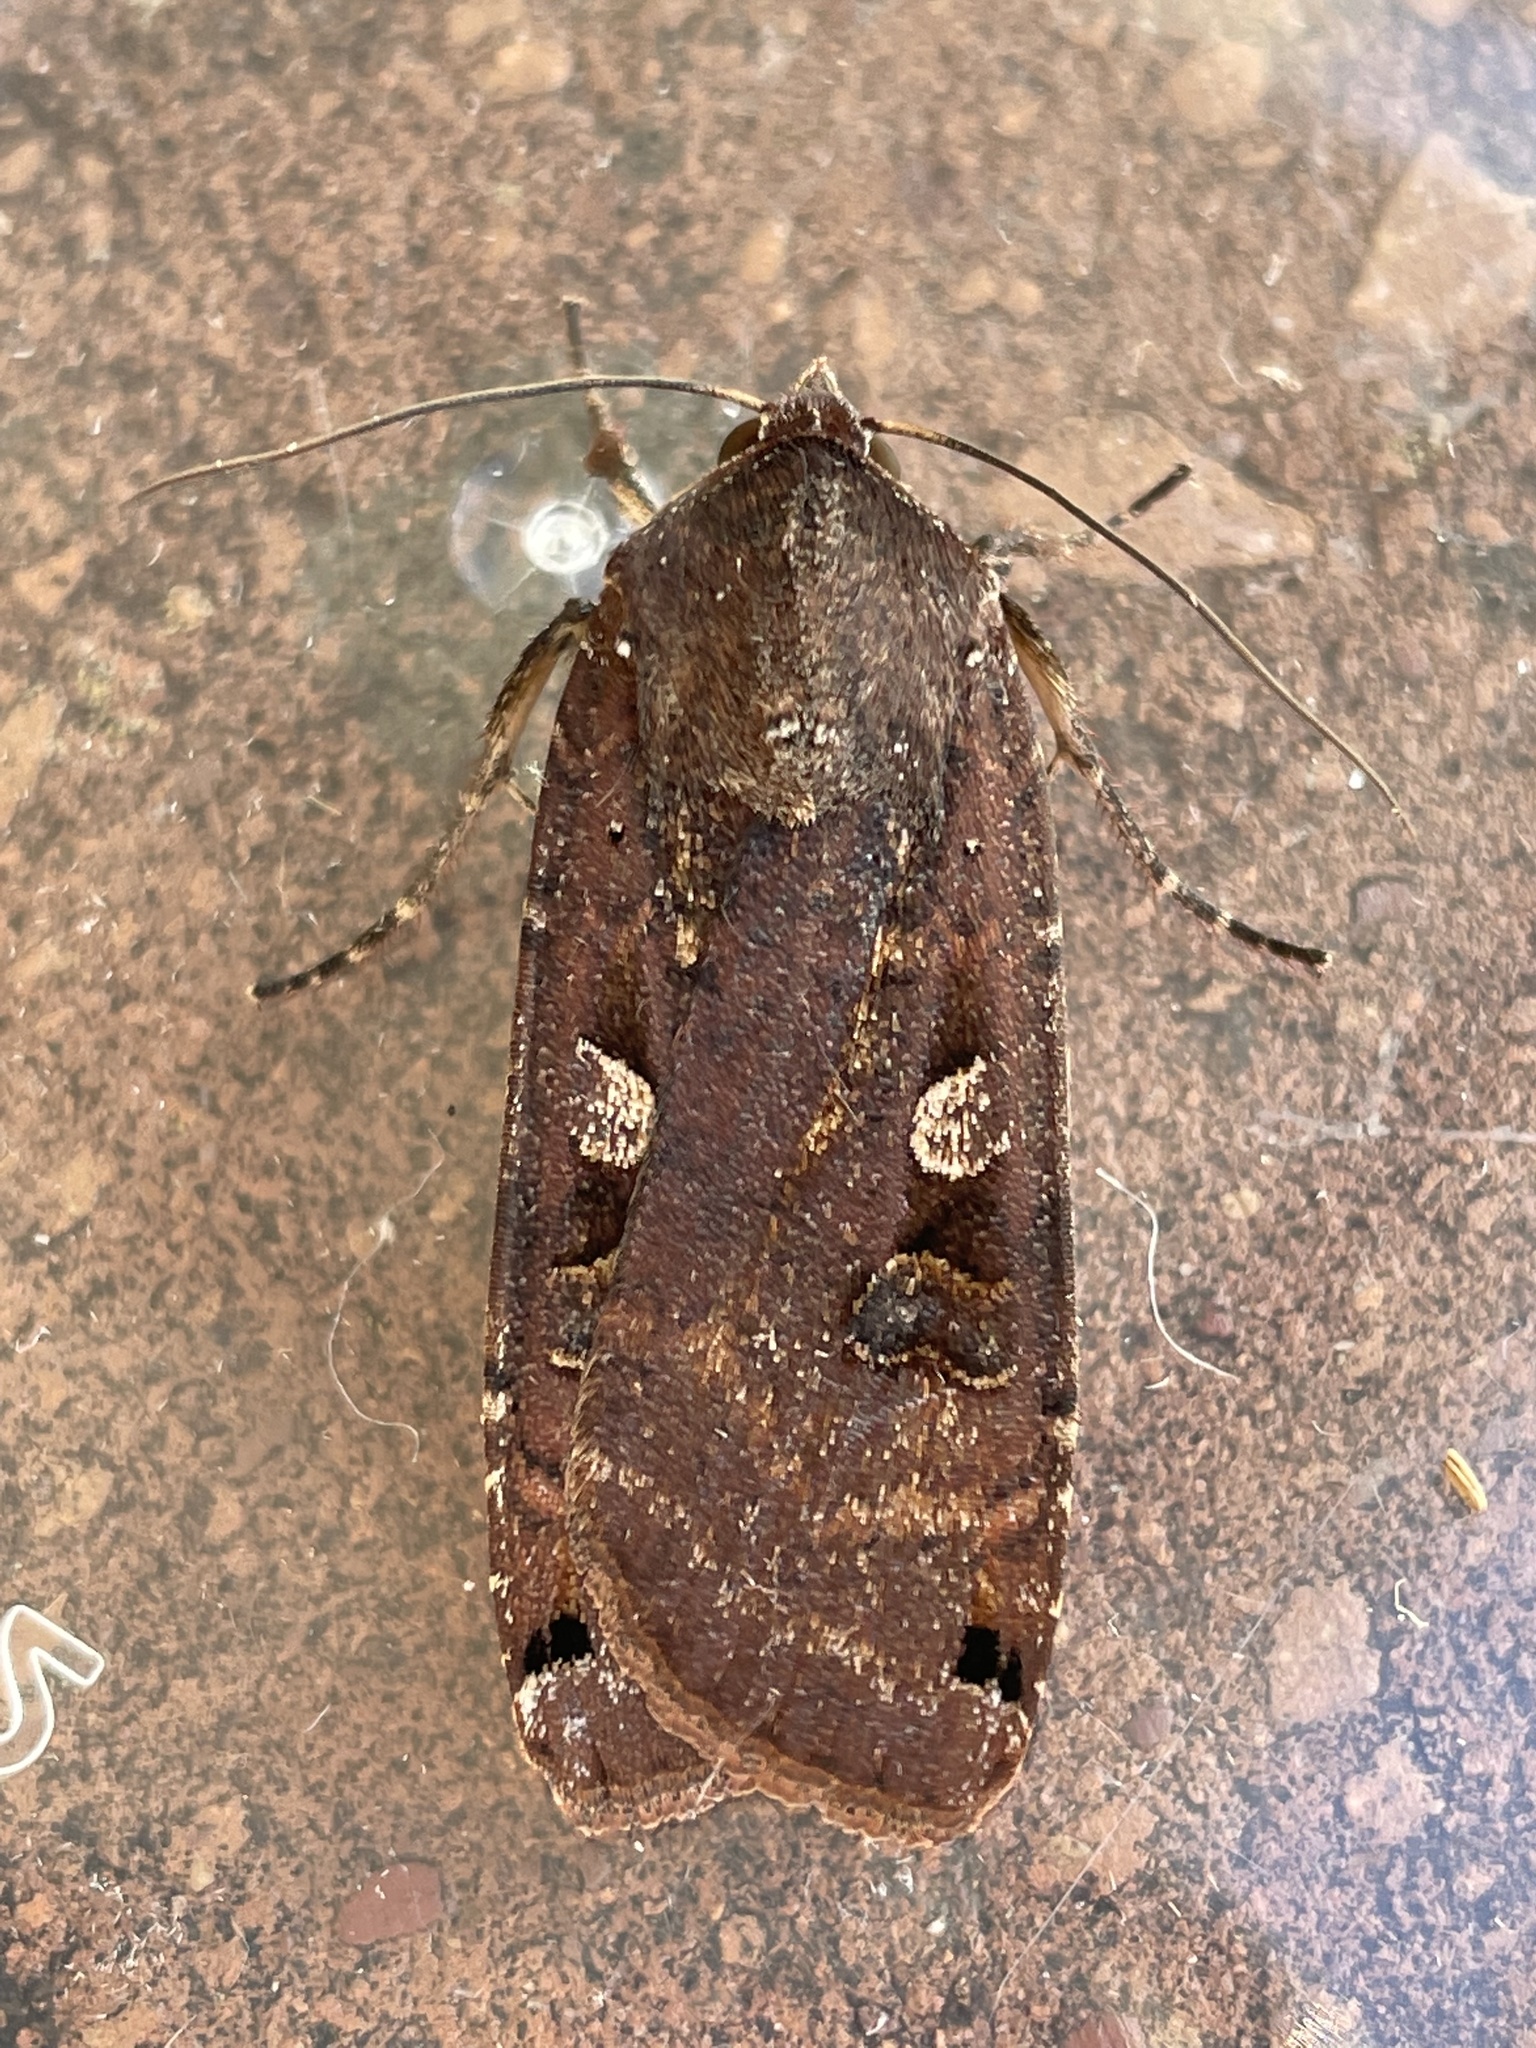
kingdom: Animalia
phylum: Arthropoda
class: Insecta
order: Lepidoptera
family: Noctuidae
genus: Noctua
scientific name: Noctua pronuba
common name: Large yellow underwing
